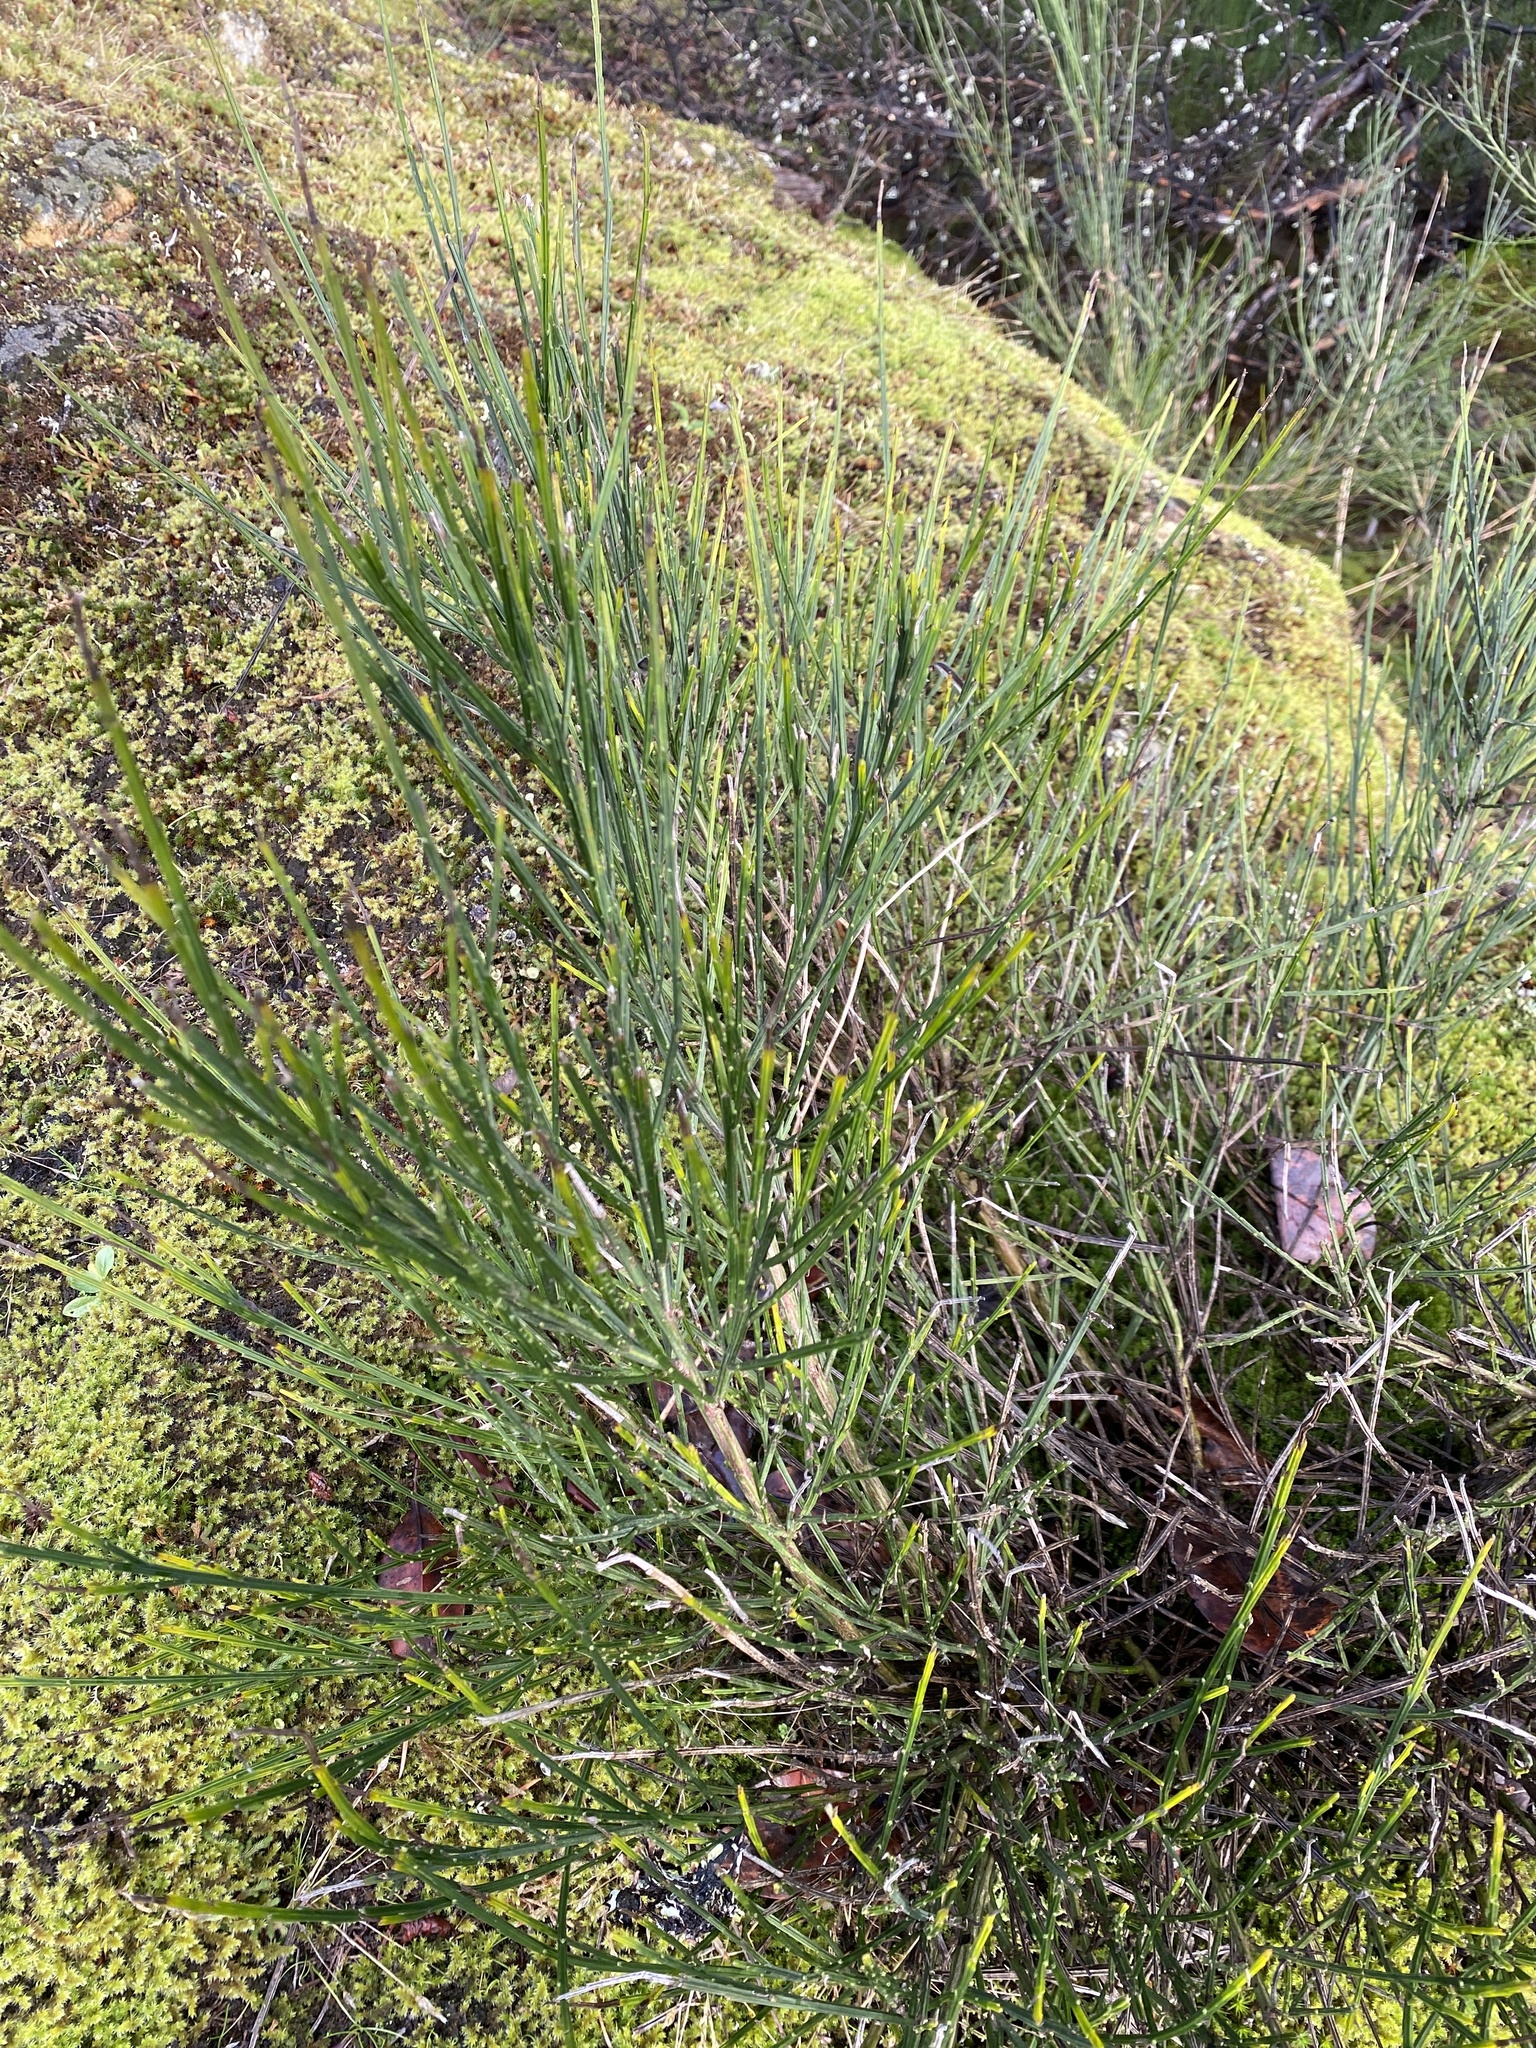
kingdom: Plantae
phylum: Tracheophyta
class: Magnoliopsida
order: Fabales
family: Fabaceae
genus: Cytisus
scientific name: Cytisus scoparius
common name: Scotch broom
